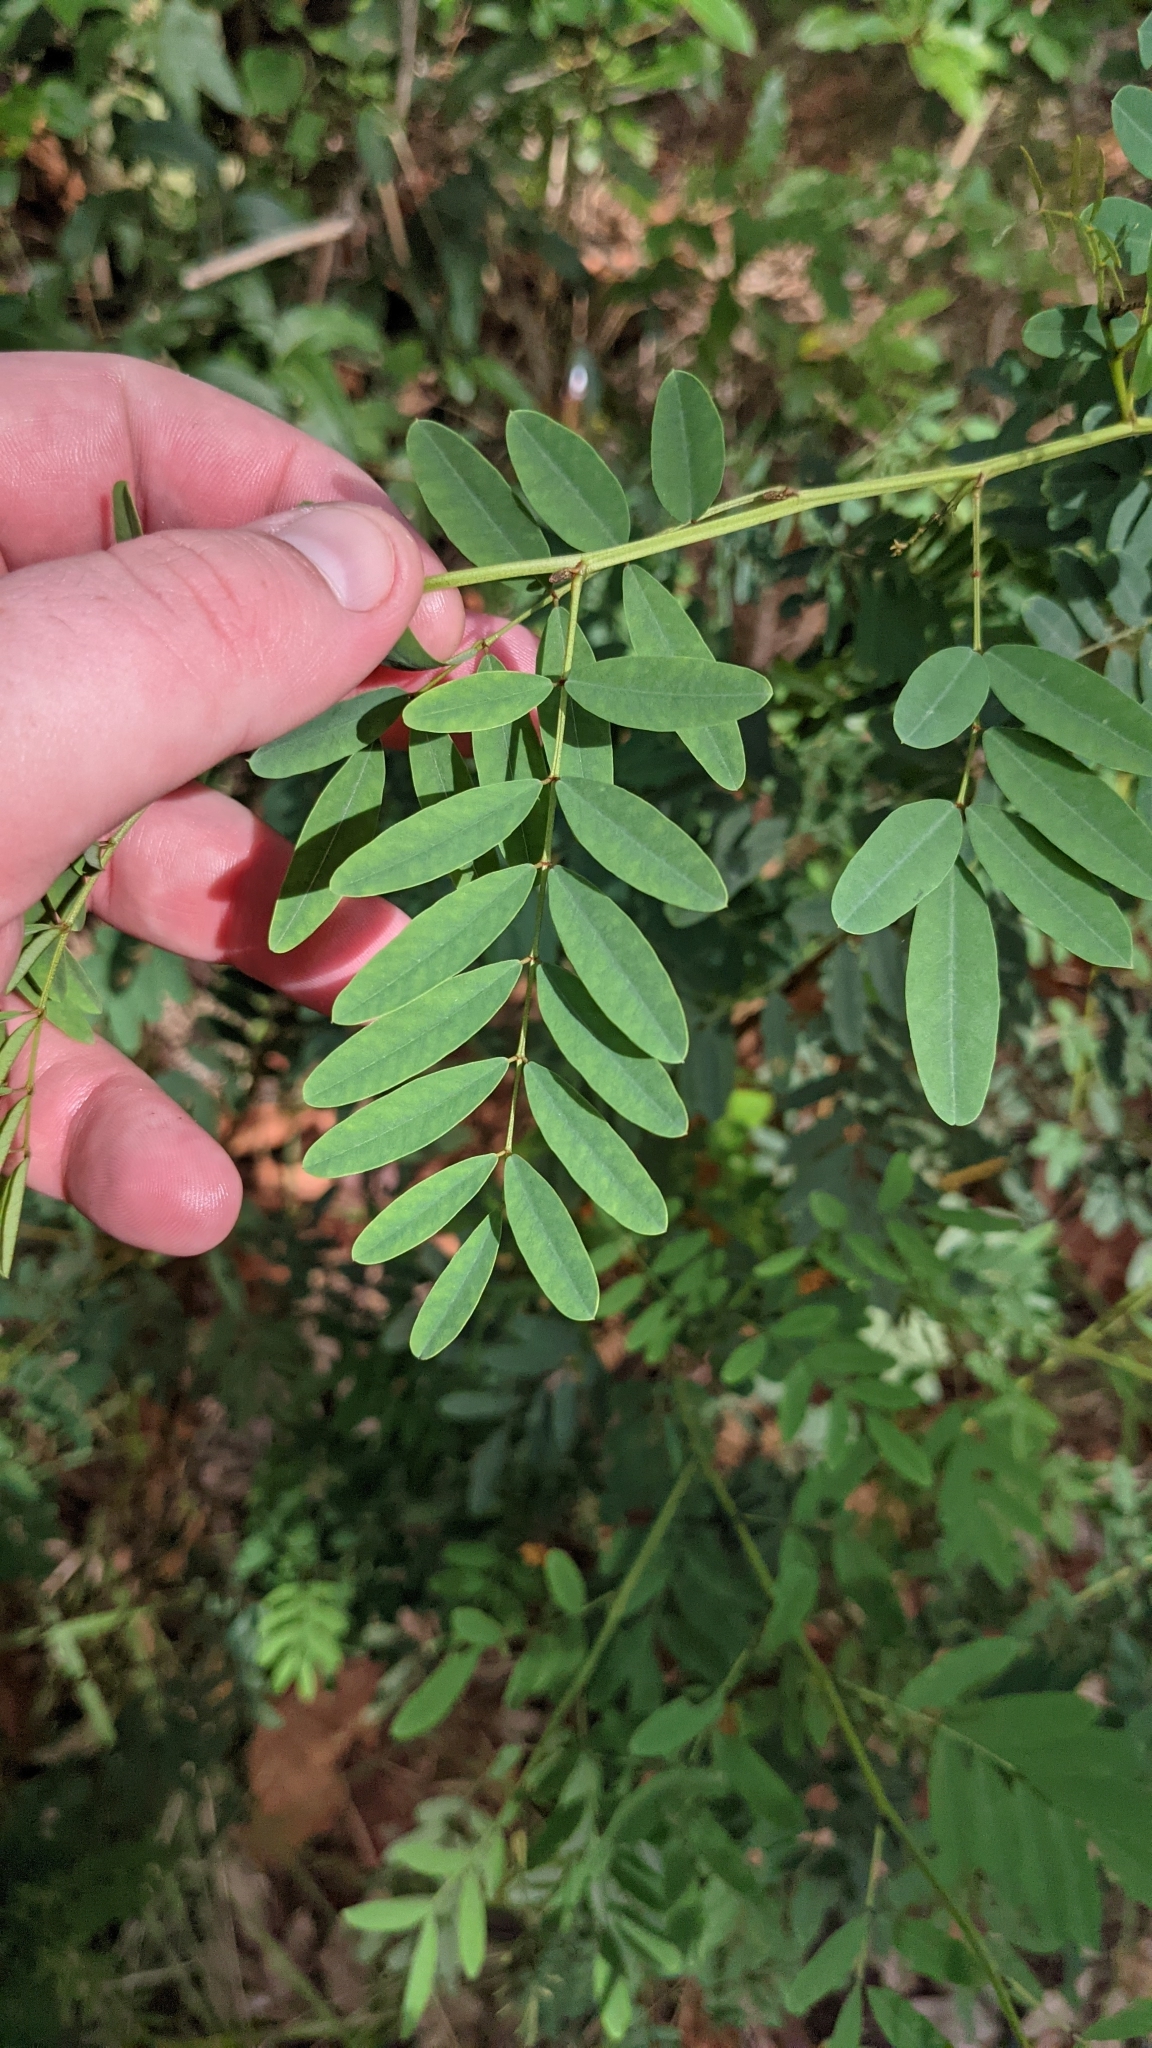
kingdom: Plantae
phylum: Tracheophyta
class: Magnoliopsida
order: Fabales
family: Fabaceae
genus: Indigofera
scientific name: Indigofera australis
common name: Australian indigo
